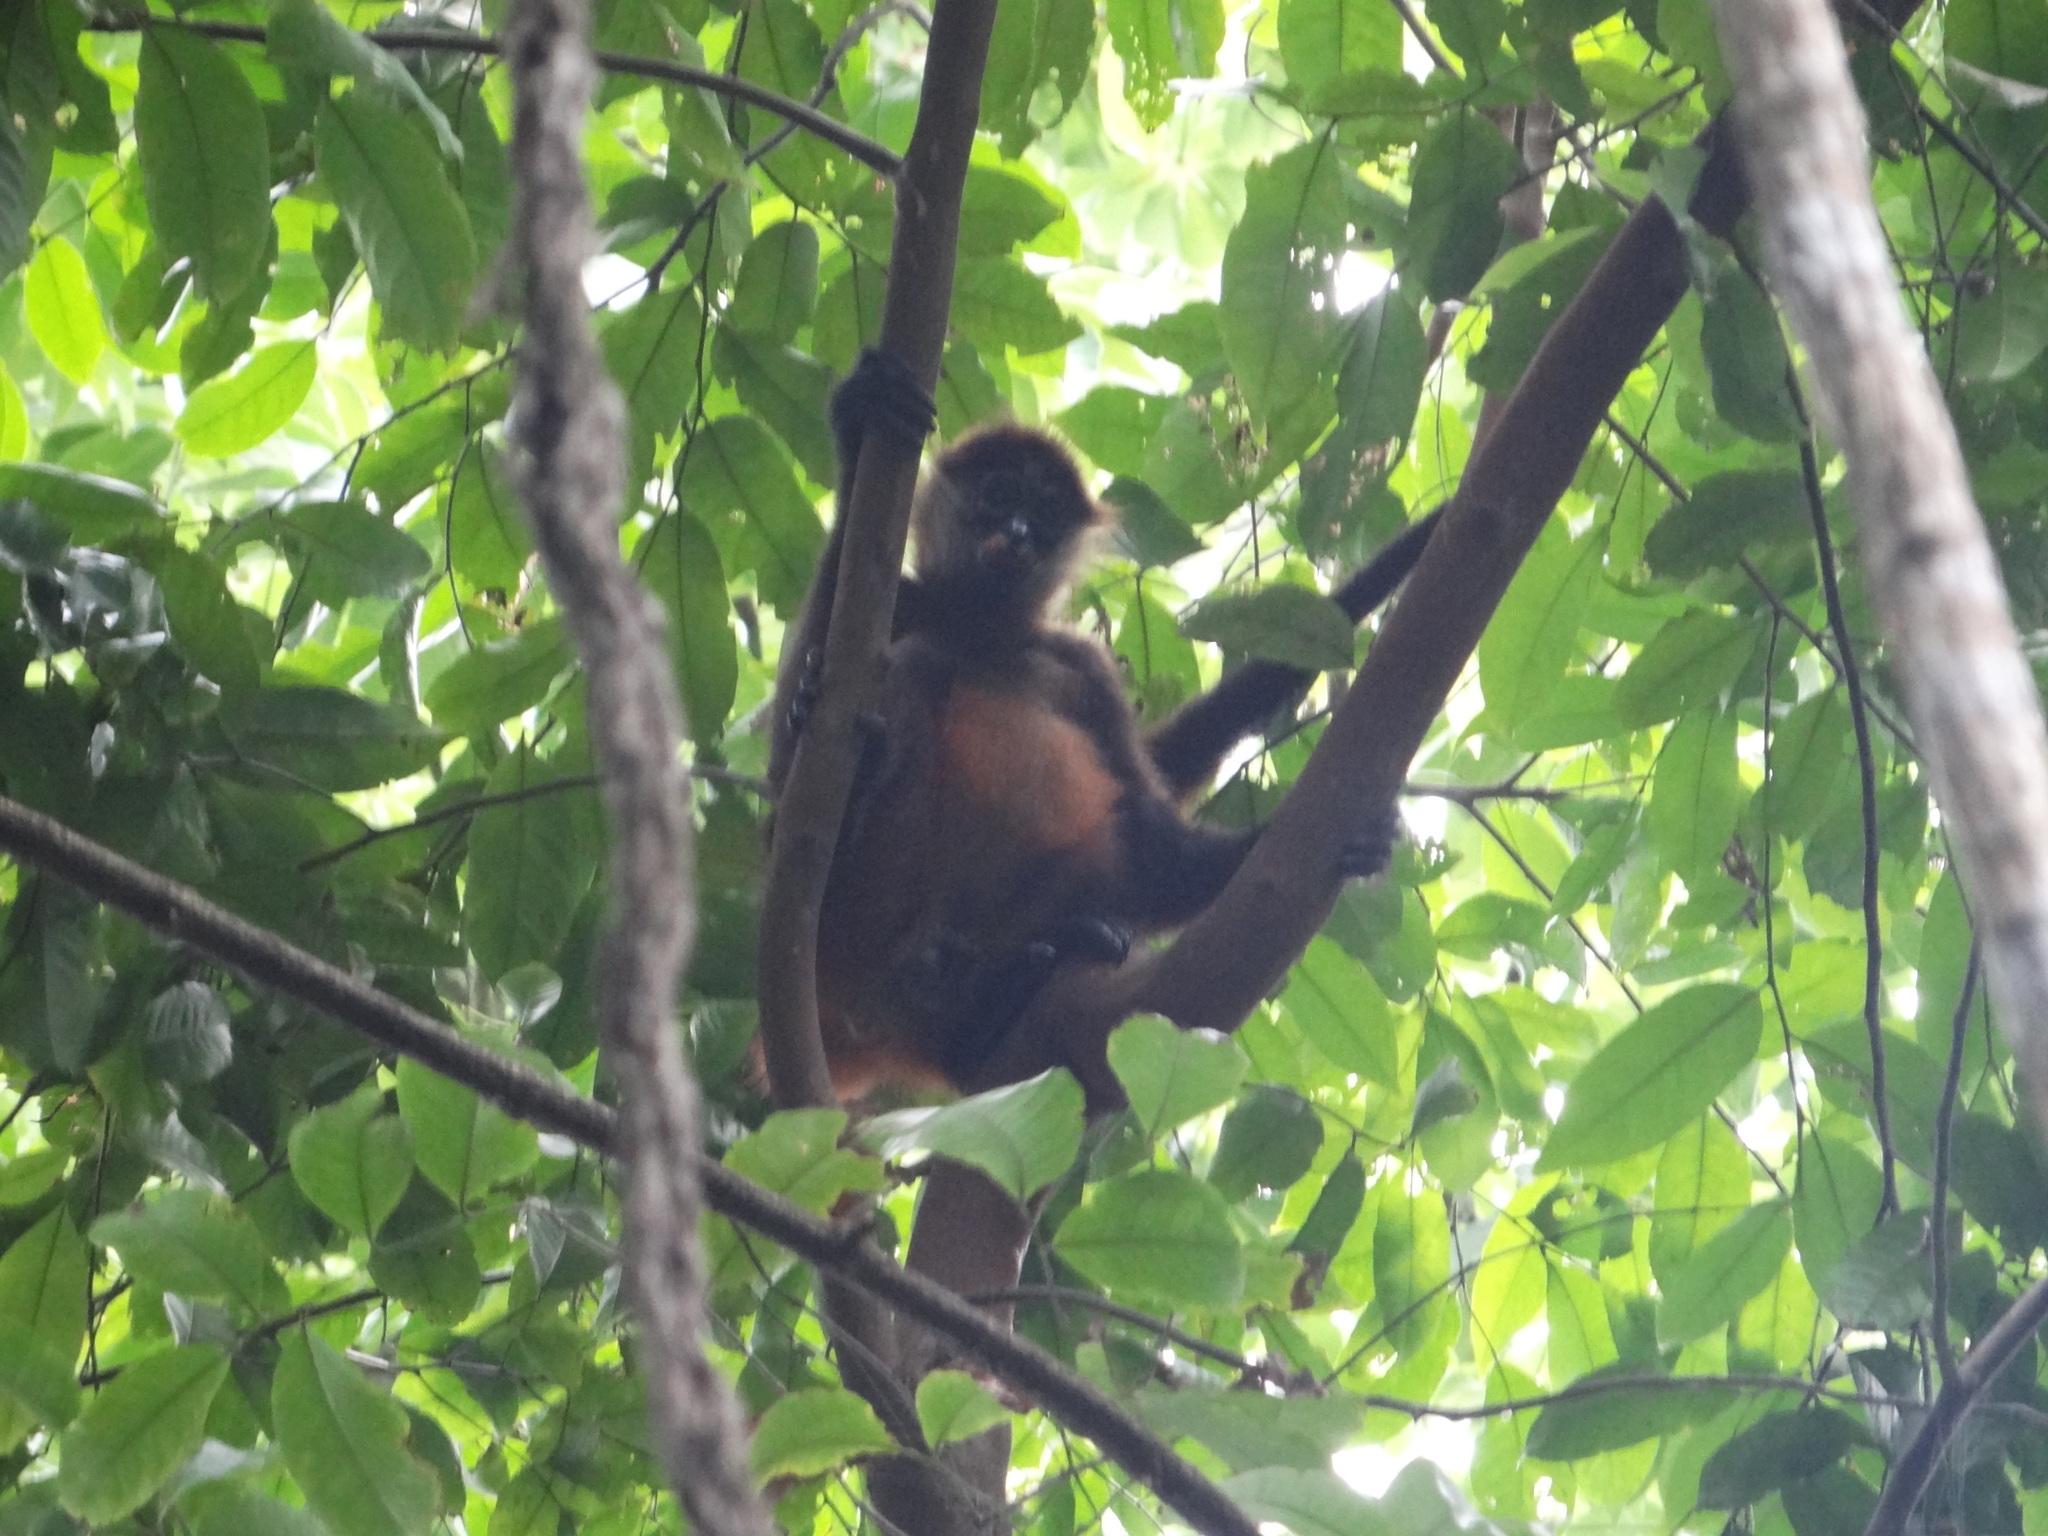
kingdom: Animalia
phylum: Chordata
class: Mammalia
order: Primates
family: Atelidae
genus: Ateles
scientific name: Ateles geoffroyi
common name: Black-handed spider monkey
